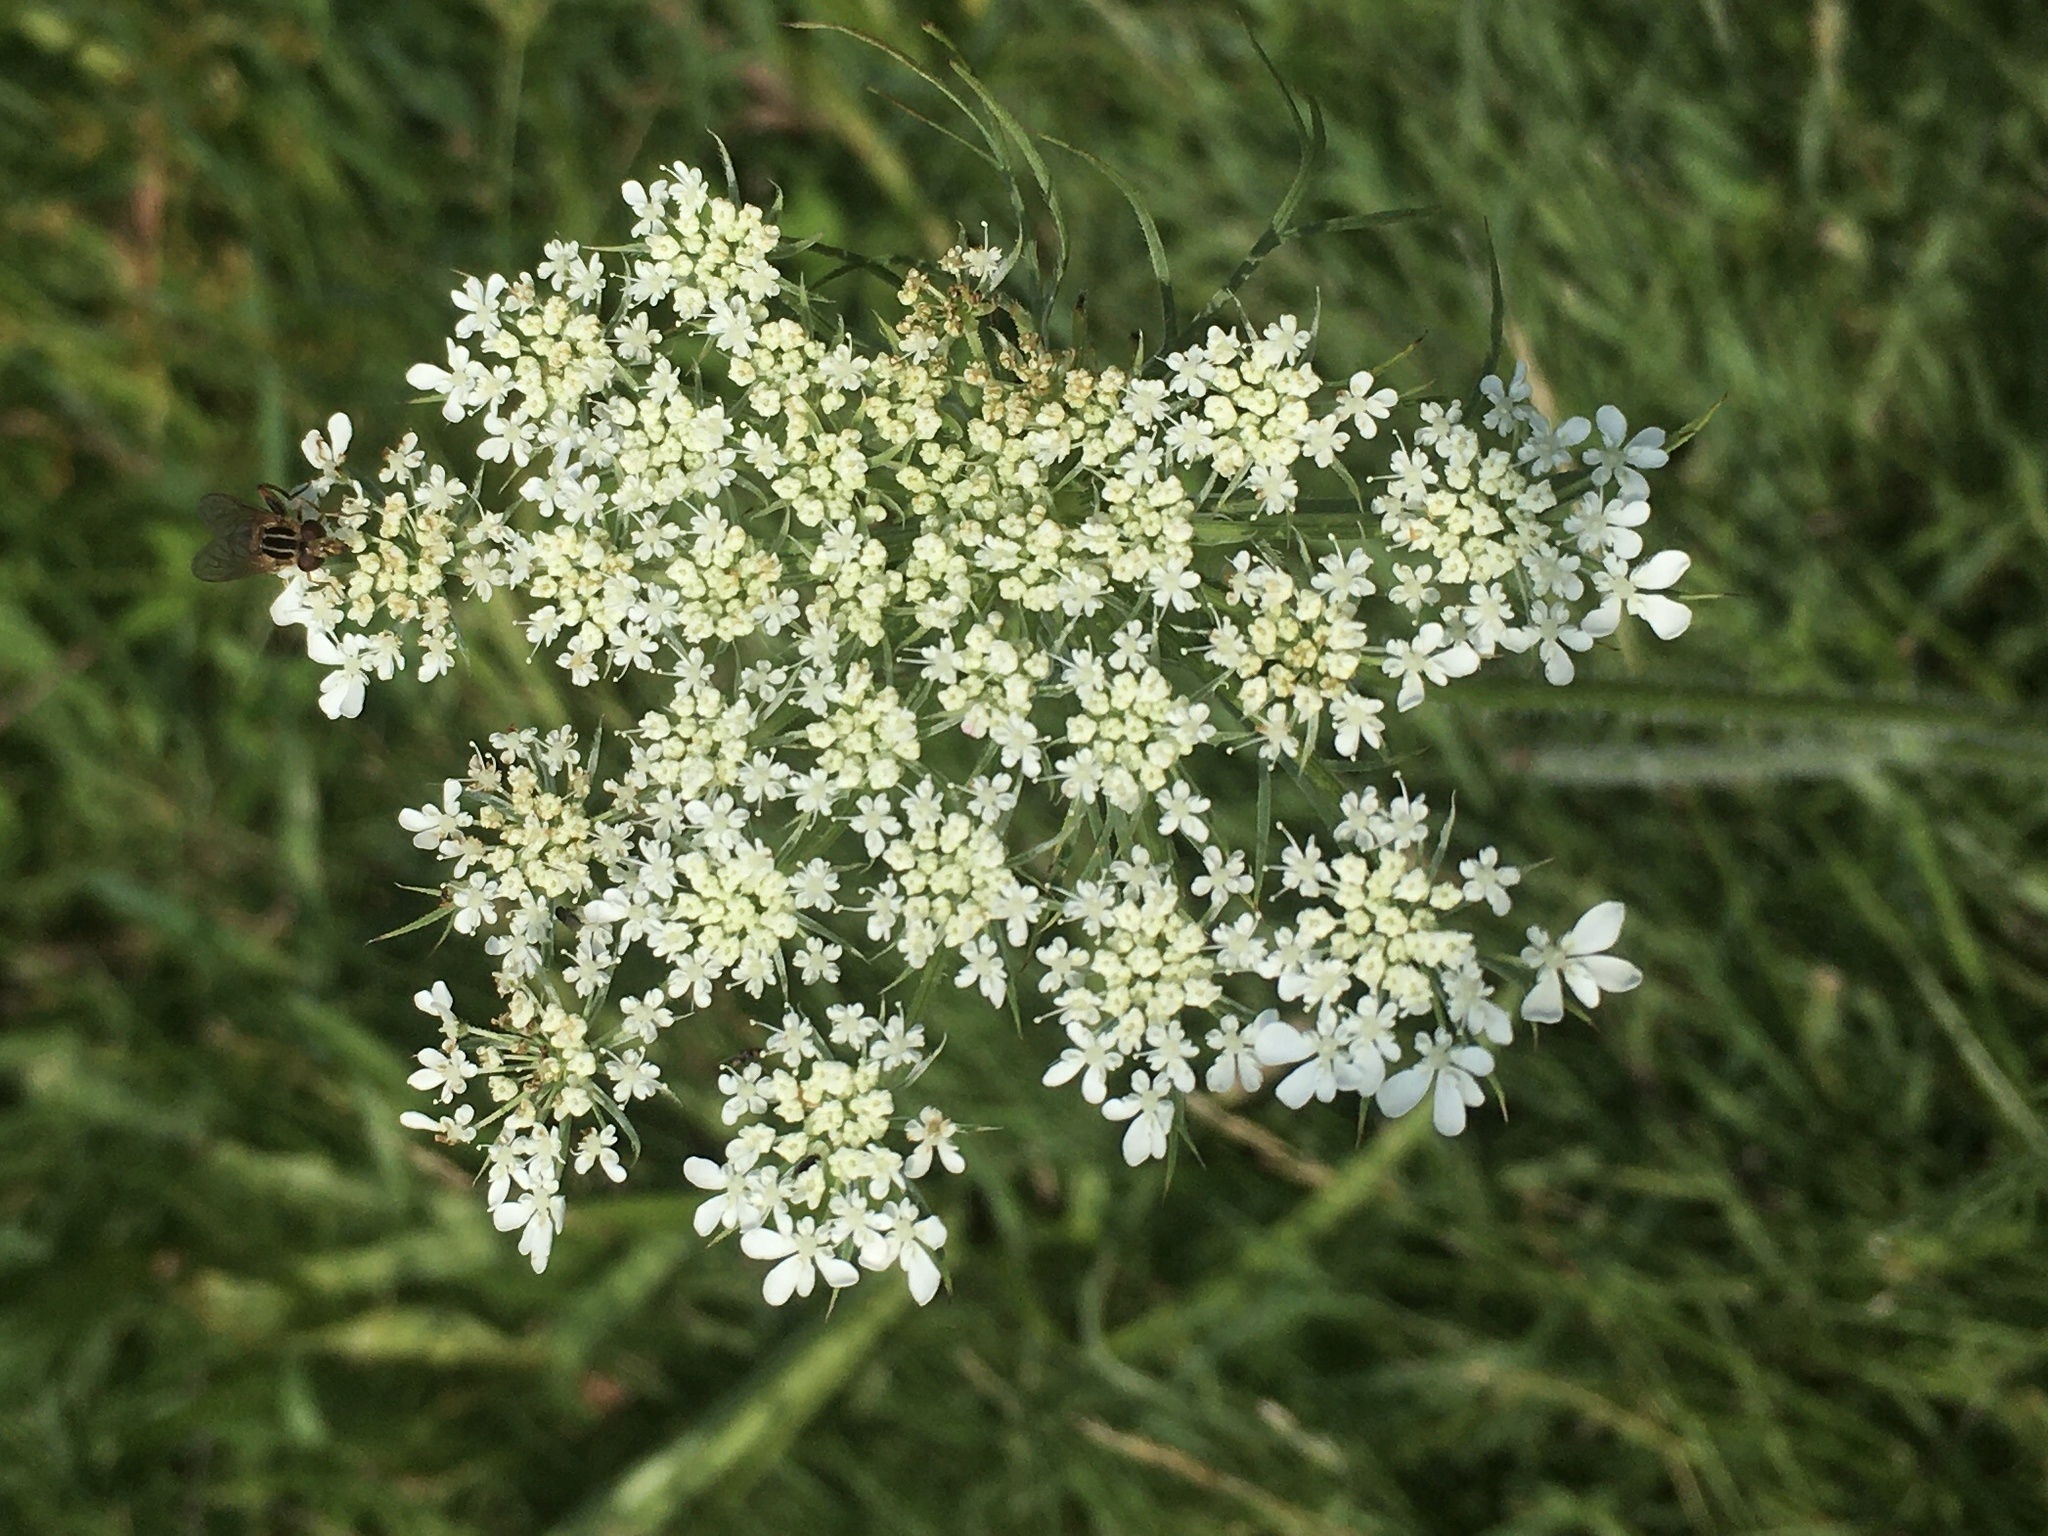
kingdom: Plantae
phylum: Tracheophyta
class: Magnoliopsida
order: Apiales
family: Apiaceae
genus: Daucus
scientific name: Daucus carota
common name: Wild carrot
